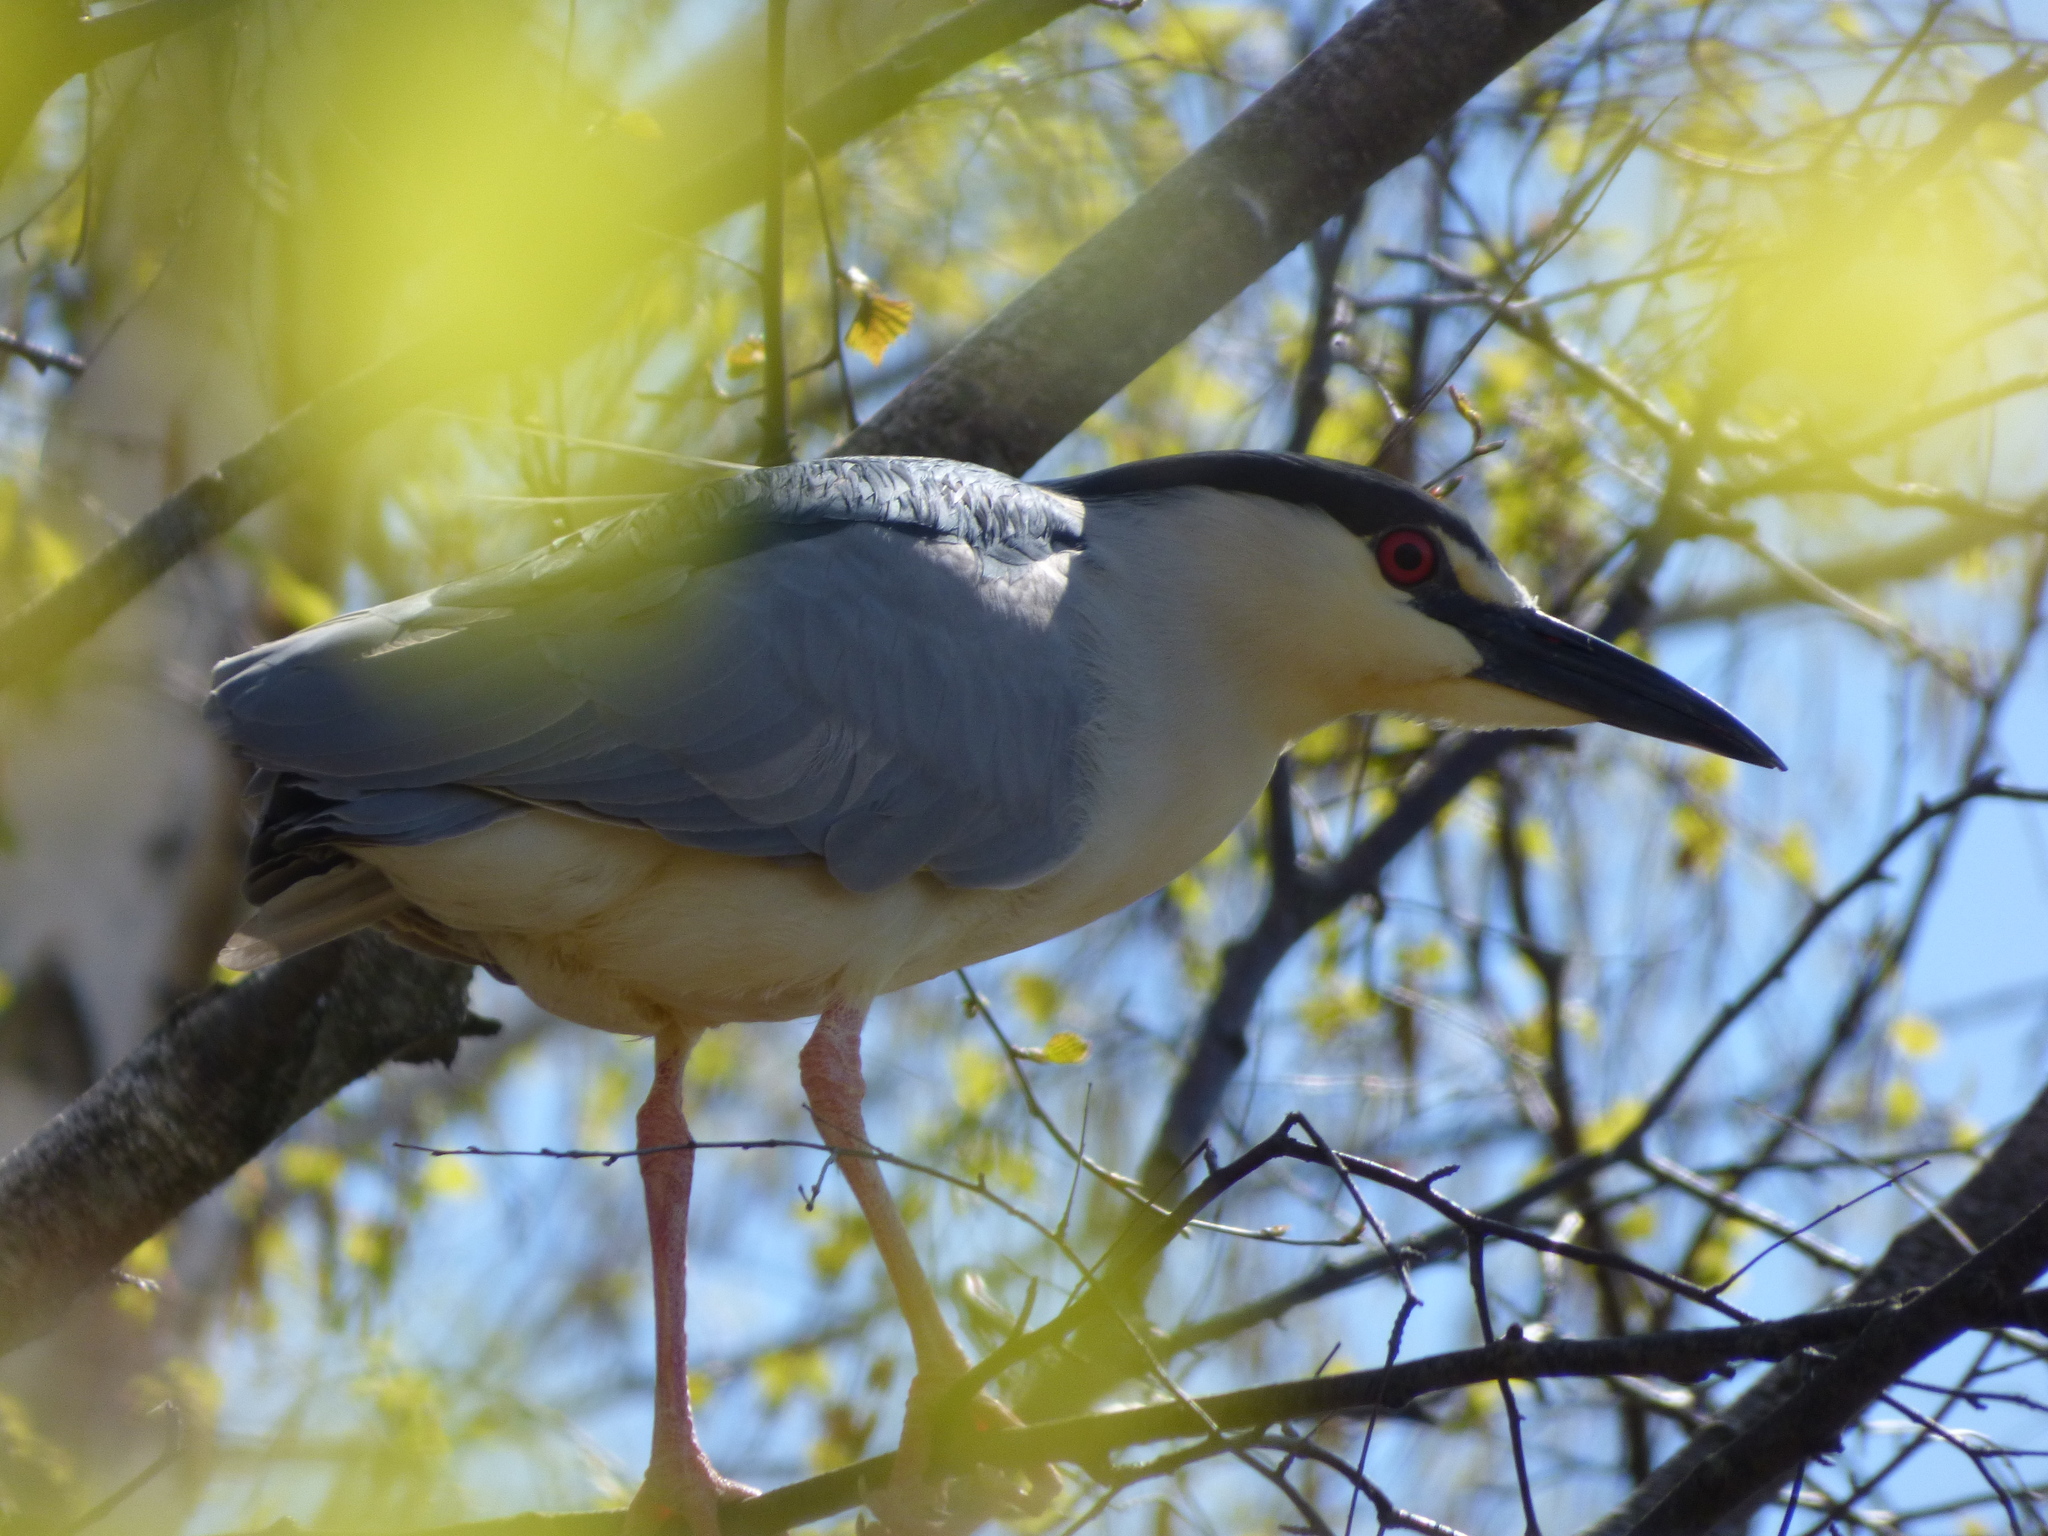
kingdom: Animalia
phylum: Chordata
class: Aves
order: Pelecaniformes
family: Ardeidae
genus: Nycticorax
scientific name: Nycticorax nycticorax
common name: Black-crowned night heron
